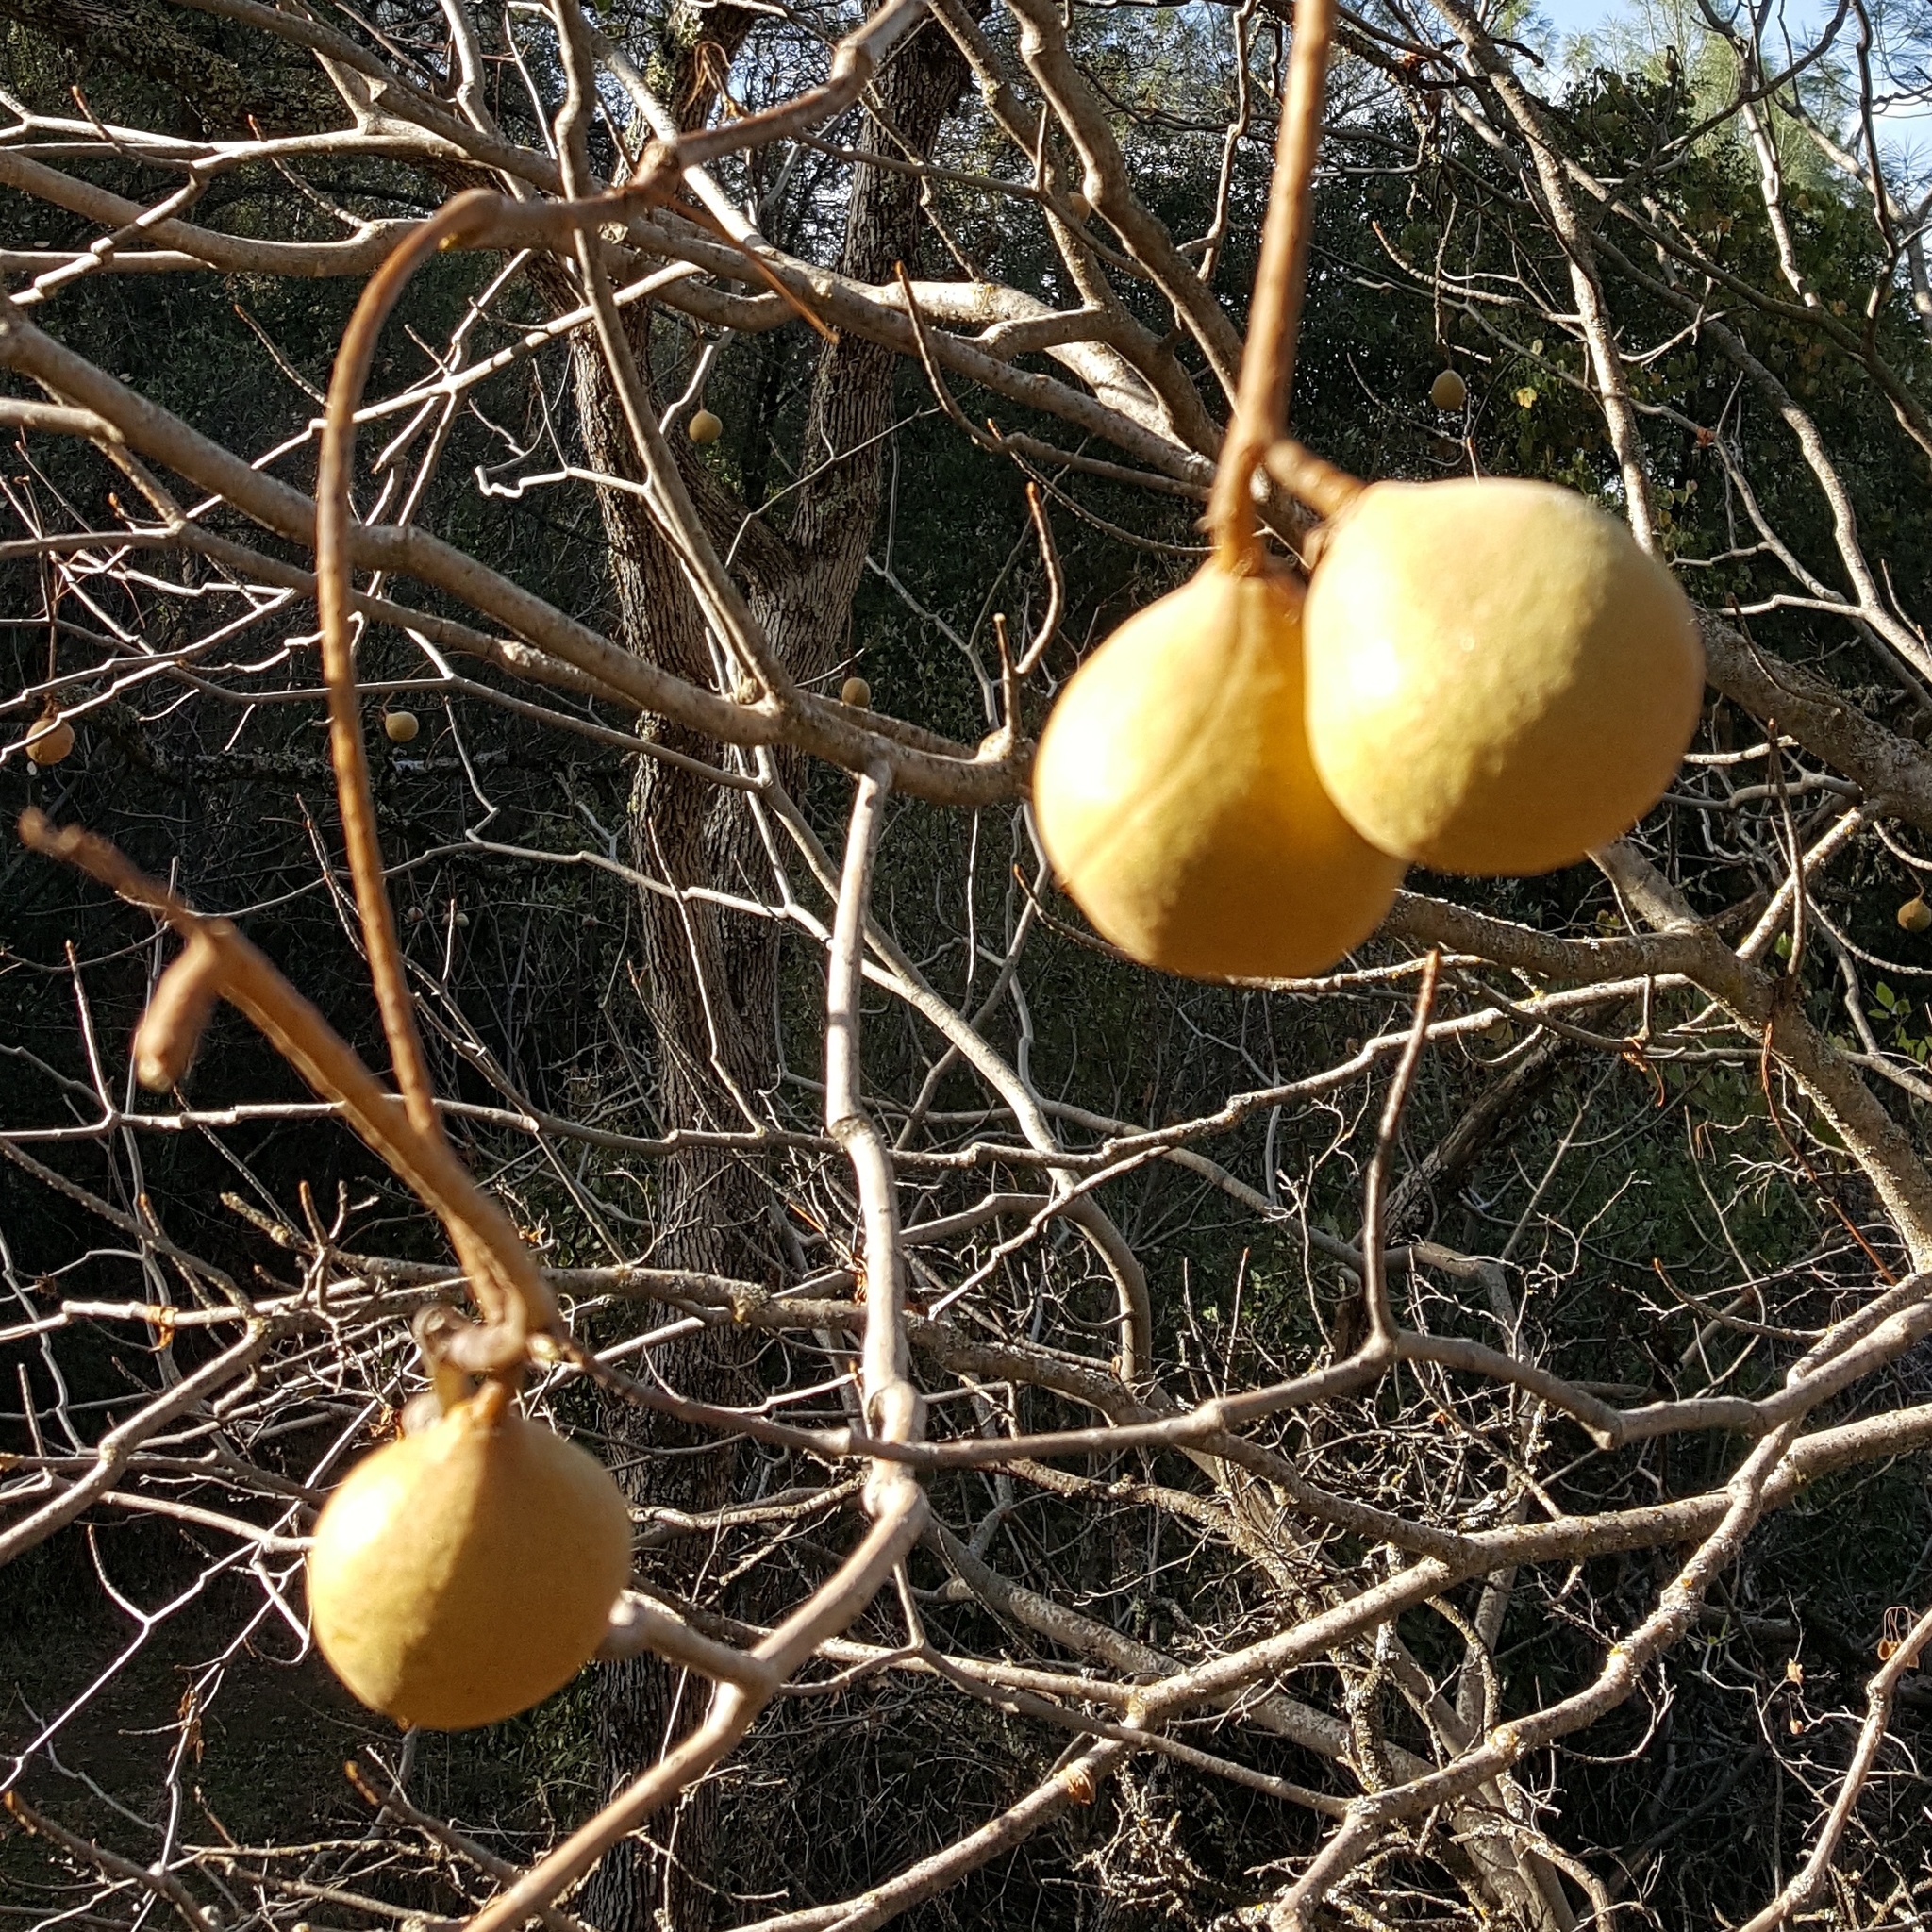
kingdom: Plantae
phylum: Tracheophyta
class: Magnoliopsida
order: Sapindales
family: Sapindaceae
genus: Aesculus
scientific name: Aesculus californica
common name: California buckeye
